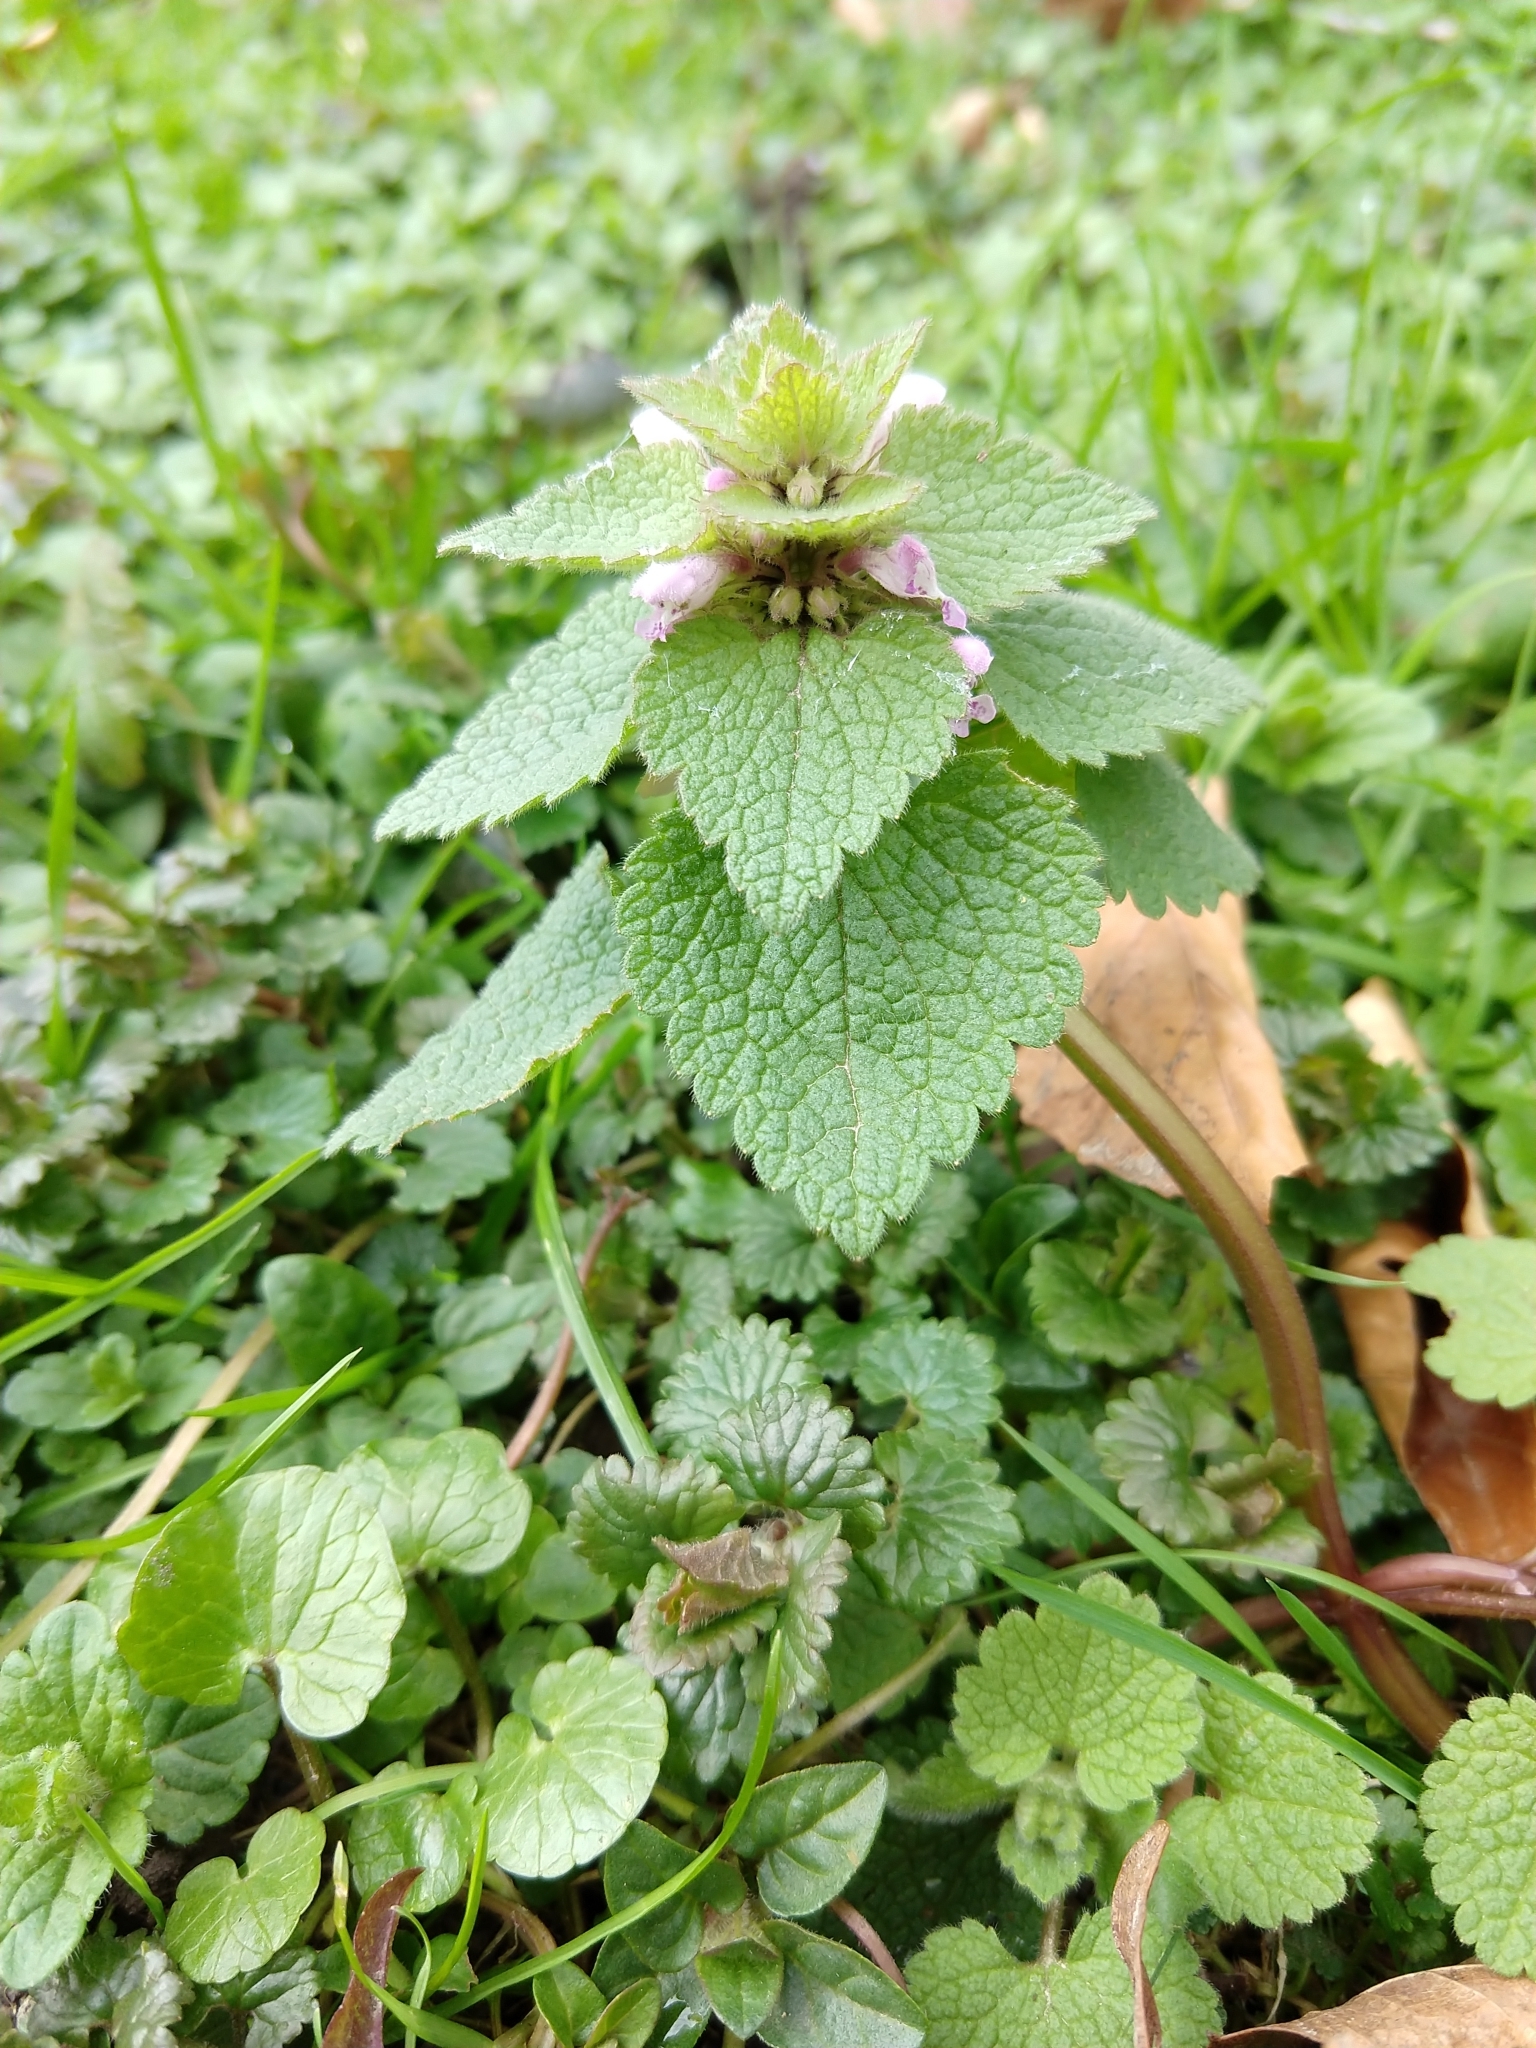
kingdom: Plantae
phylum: Tracheophyta
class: Magnoliopsida
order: Lamiales
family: Lamiaceae
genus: Lamium
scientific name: Lamium purpureum
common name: Red dead-nettle
